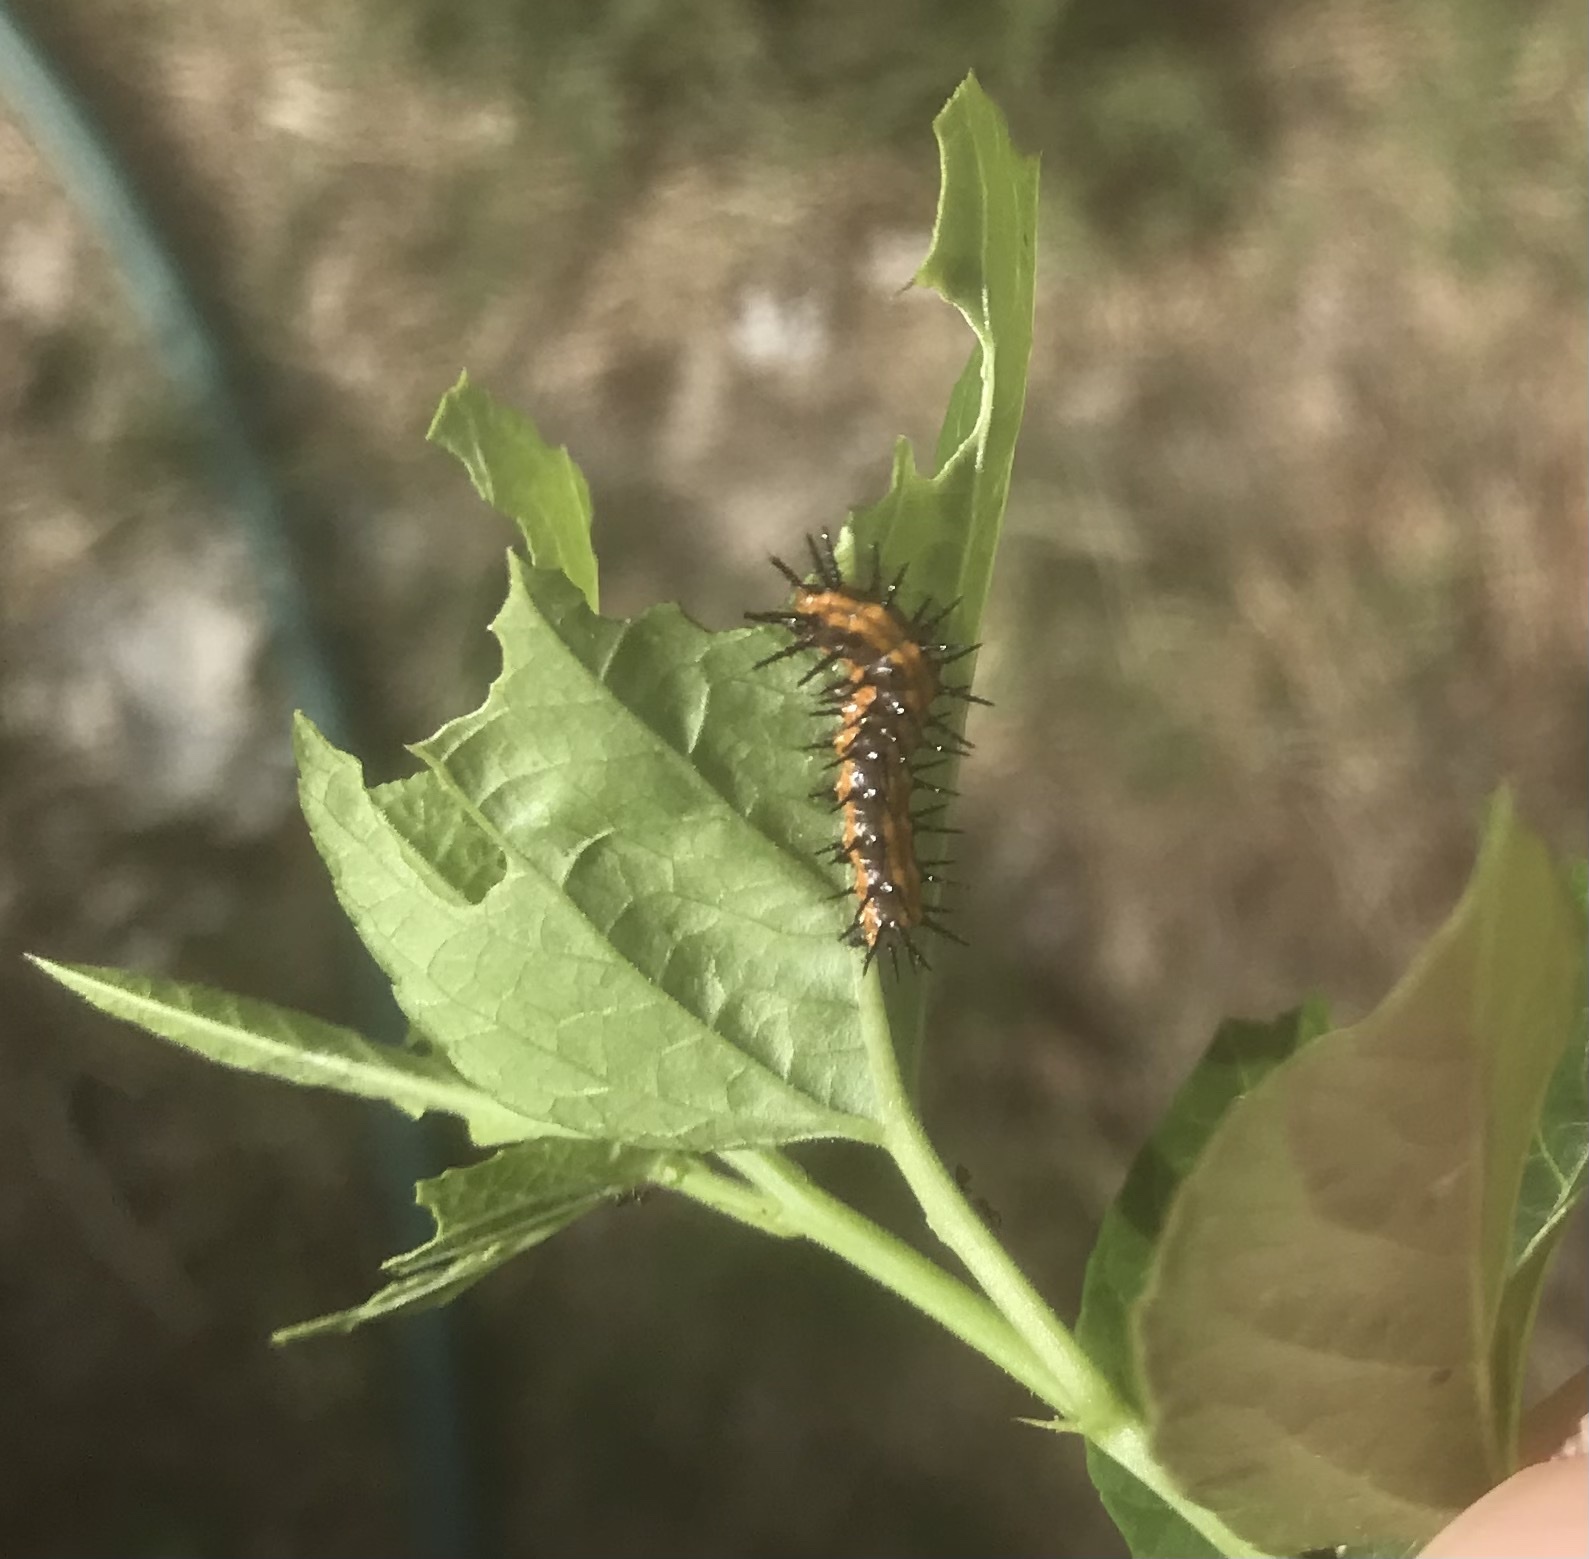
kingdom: Animalia
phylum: Arthropoda
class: Insecta
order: Lepidoptera
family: Nymphalidae
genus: Dione
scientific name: Dione vanillae
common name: Gulf fritillary
